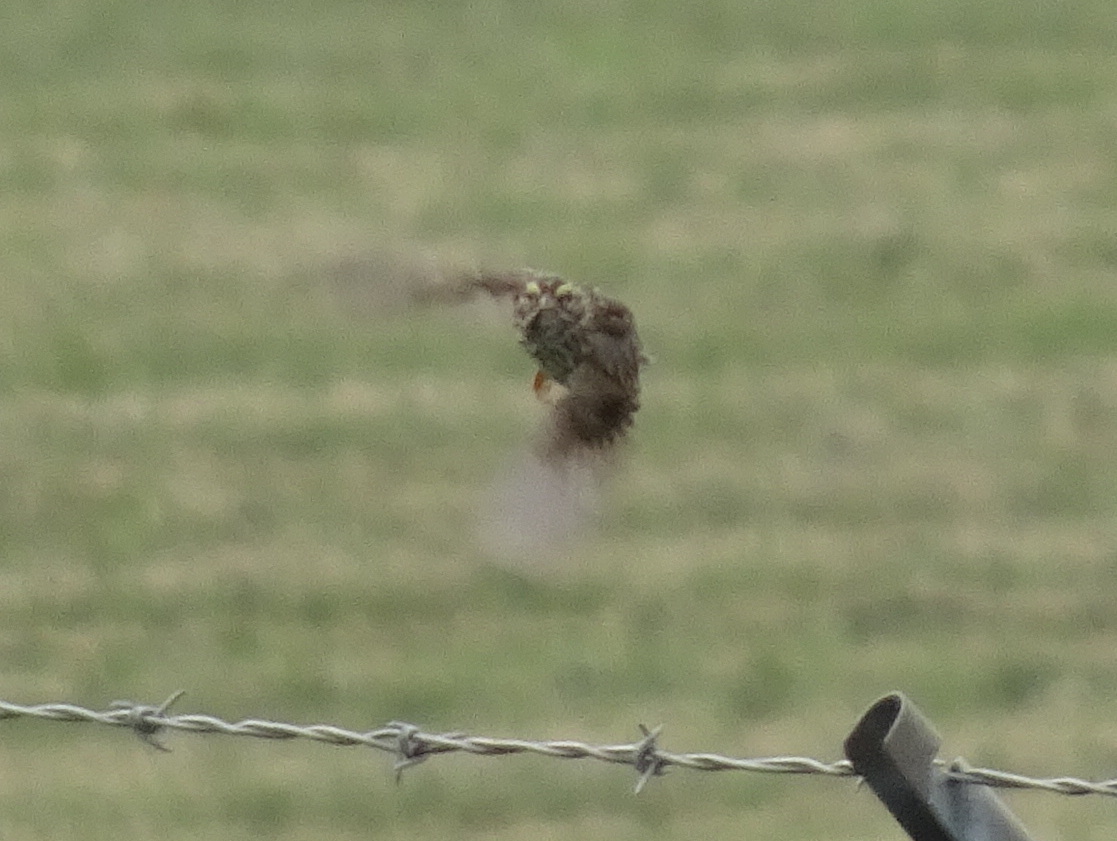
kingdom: Animalia
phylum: Chordata
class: Aves
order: Passeriformes
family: Passerellidae
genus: Passerculus
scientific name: Passerculus sandwichensis
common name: Savannah sparrow
